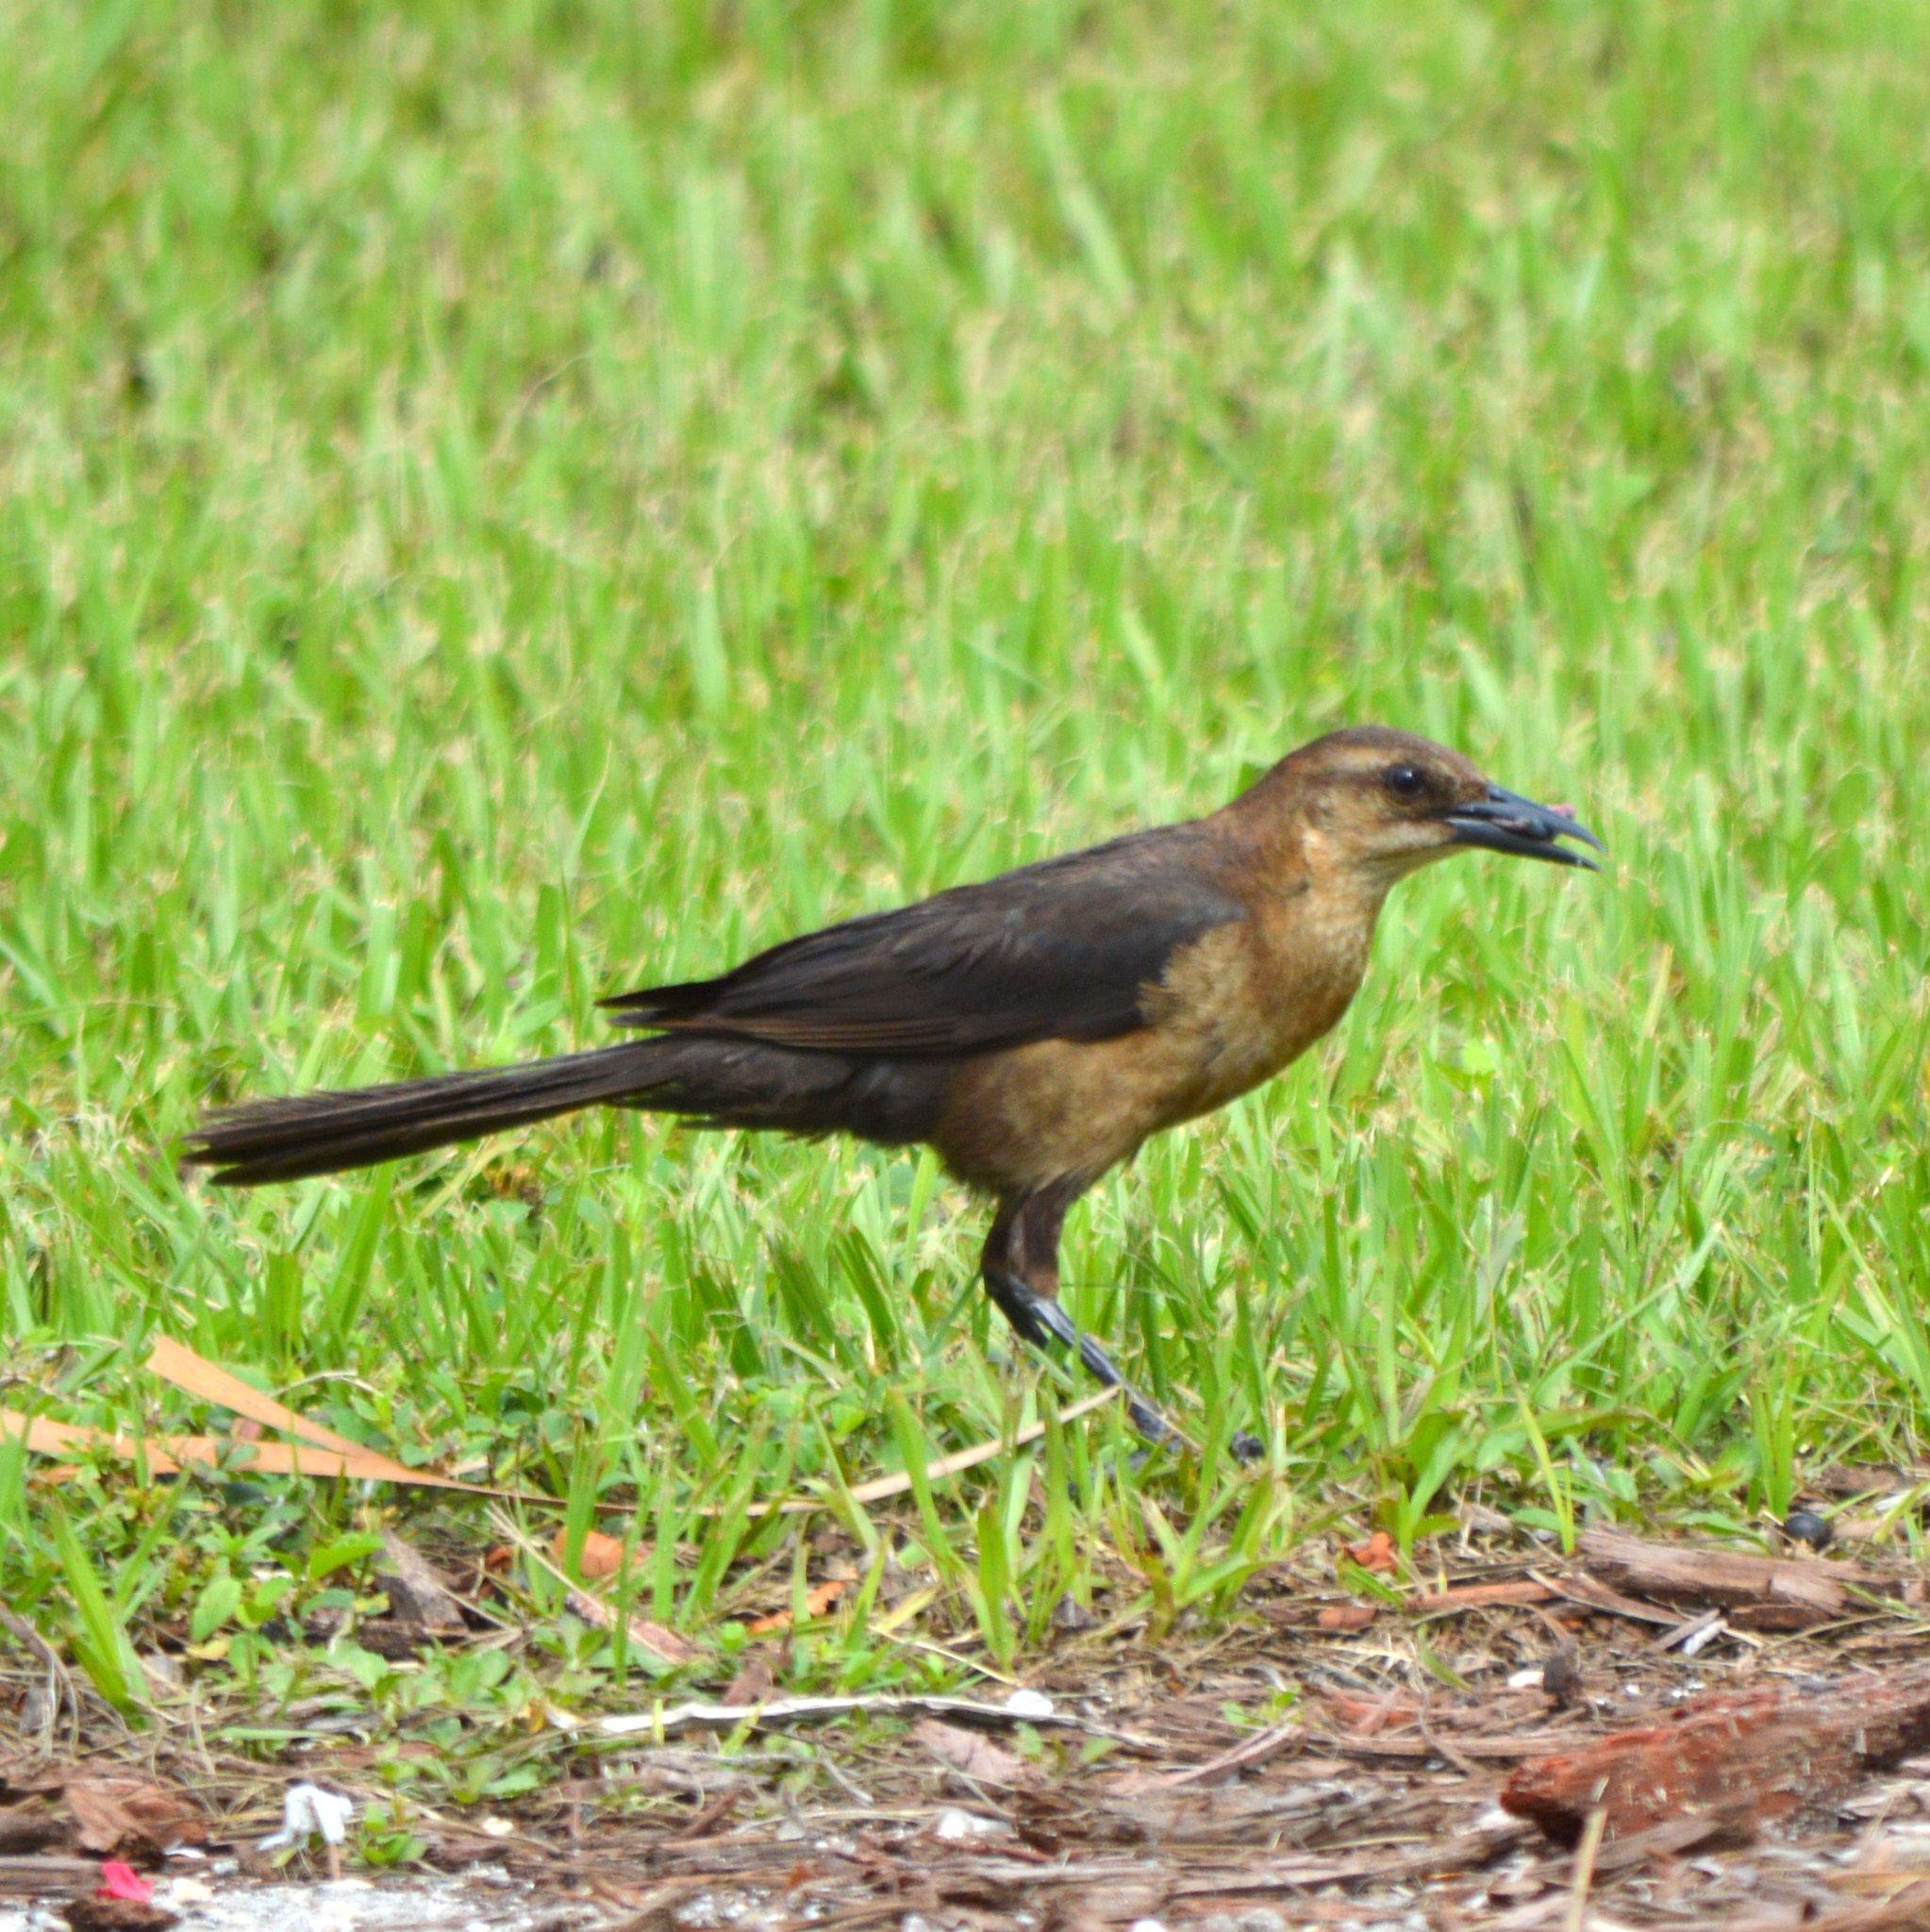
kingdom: Animalia
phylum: Chordata
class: Aves
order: Passeriformes
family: Icteridae
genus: Quiscalus
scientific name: Quiscalus major
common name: Boat-tailed grackle
